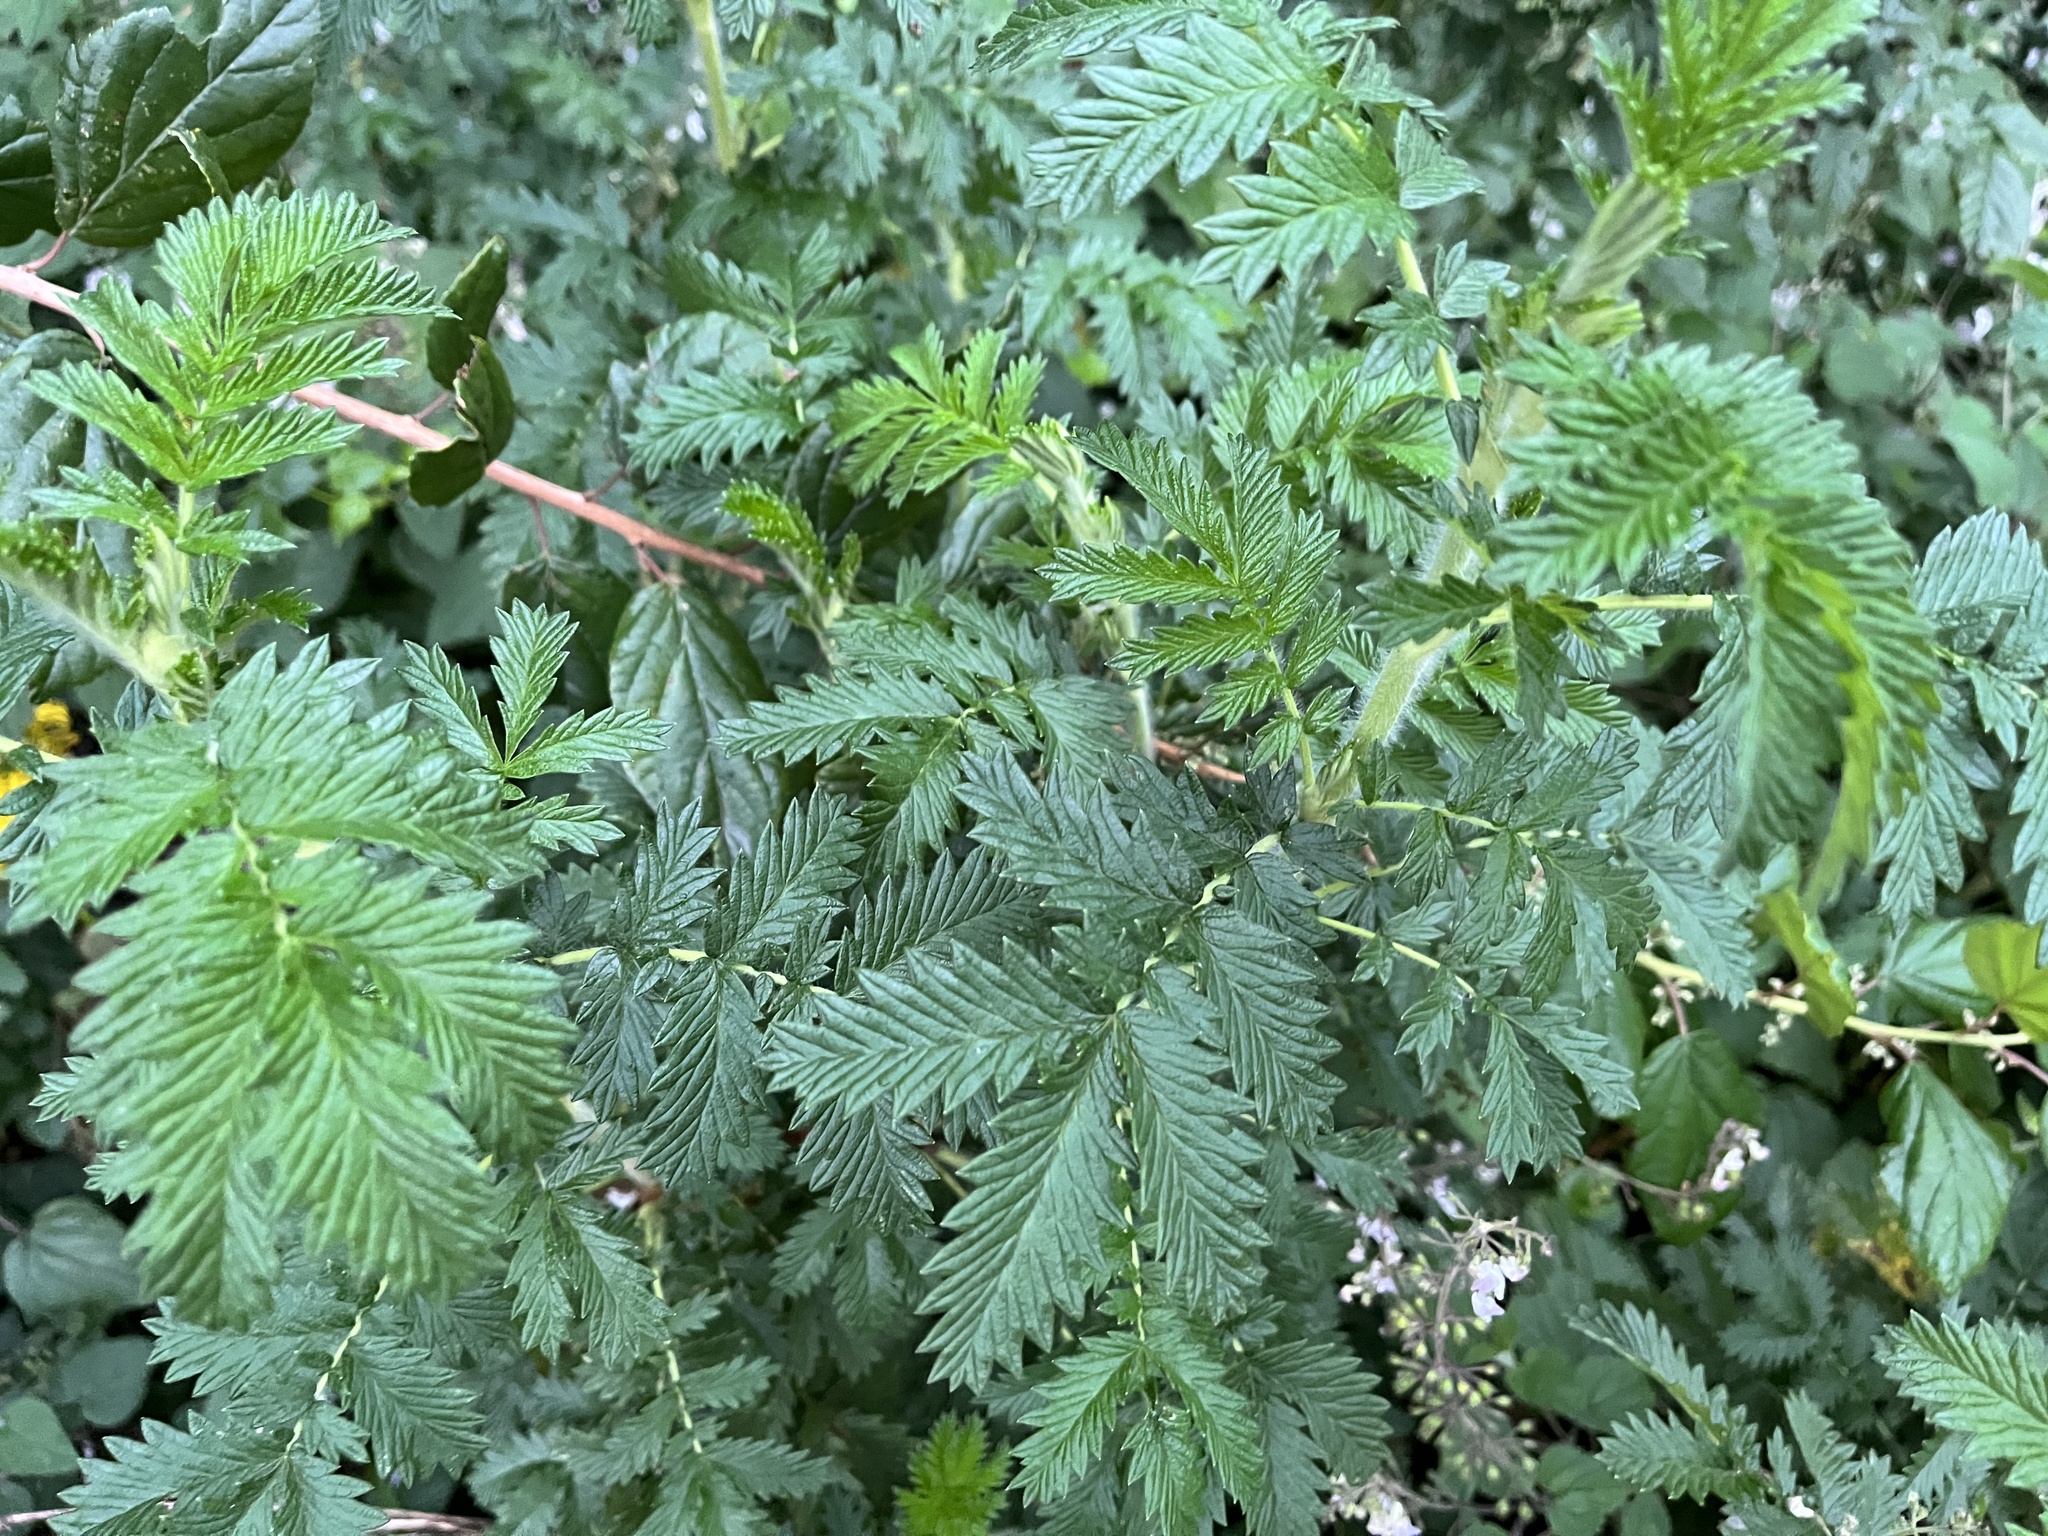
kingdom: Plantae
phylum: Tracheophyta
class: Magnoliopsida
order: Rosales
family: Rosaceae
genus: Leucosidea
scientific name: Leucosidea sericea
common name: Oldwood
